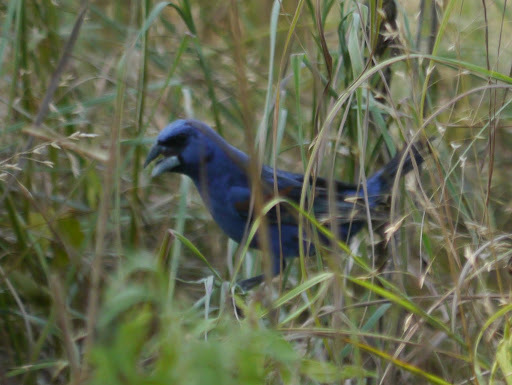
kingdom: Animalia
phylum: Chordata
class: Aves
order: Passeriformes
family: Cardinalidae
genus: Passerina
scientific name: Passerina caerulea
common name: Blue grosbeak
